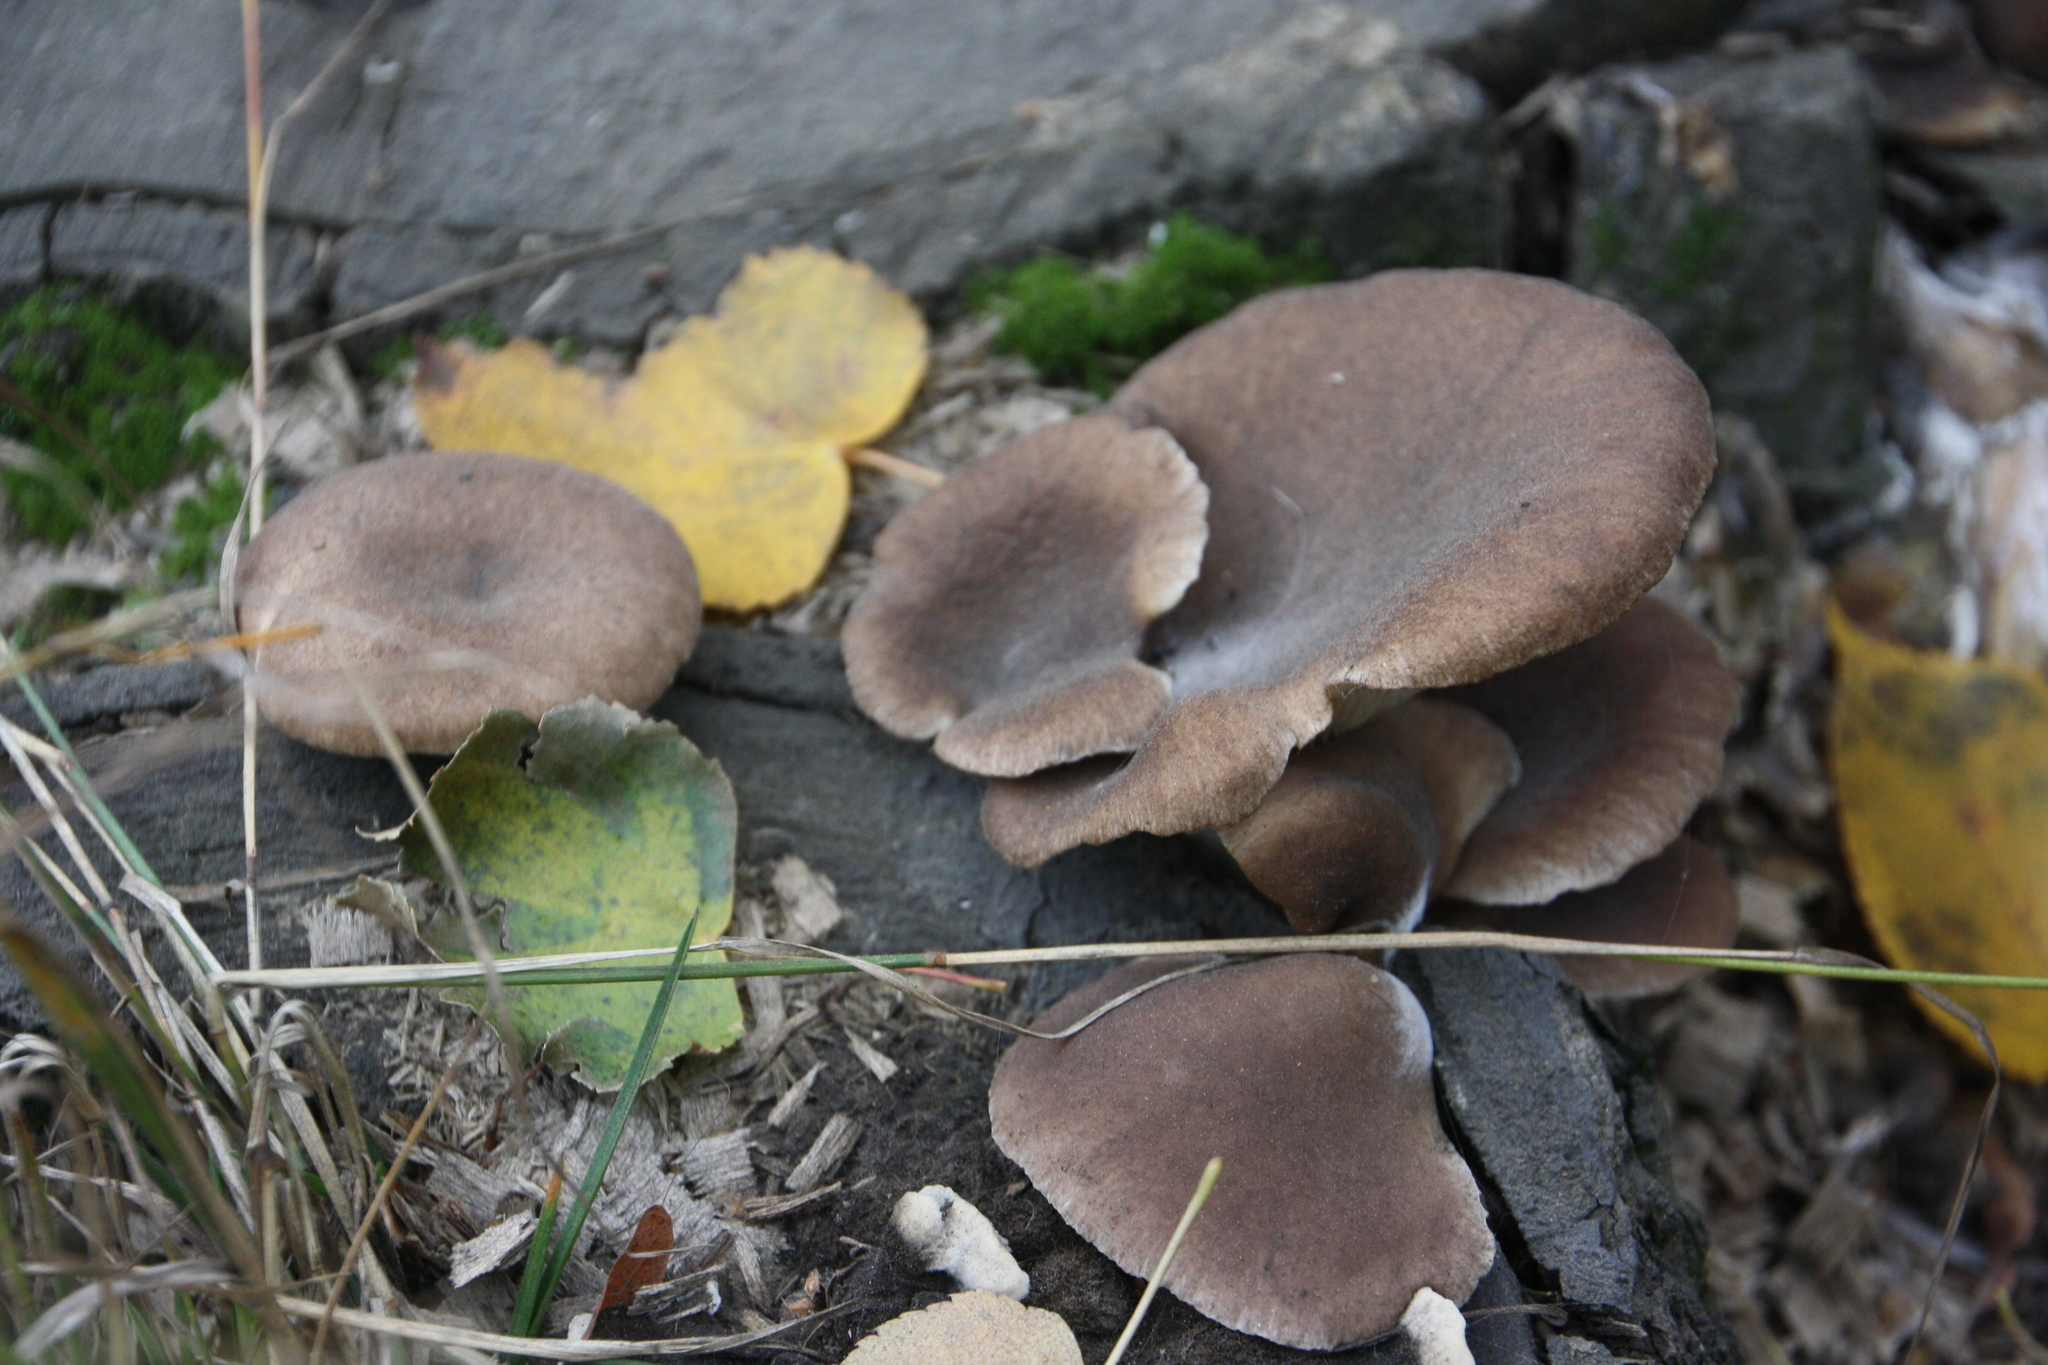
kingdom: Fungi
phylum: Basidiomycota
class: Agaricomycetes
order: Agaricales
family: Pleurotaceae
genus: Pleurotus
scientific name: Pleurotus ostreatus
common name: Oyster mushroom
